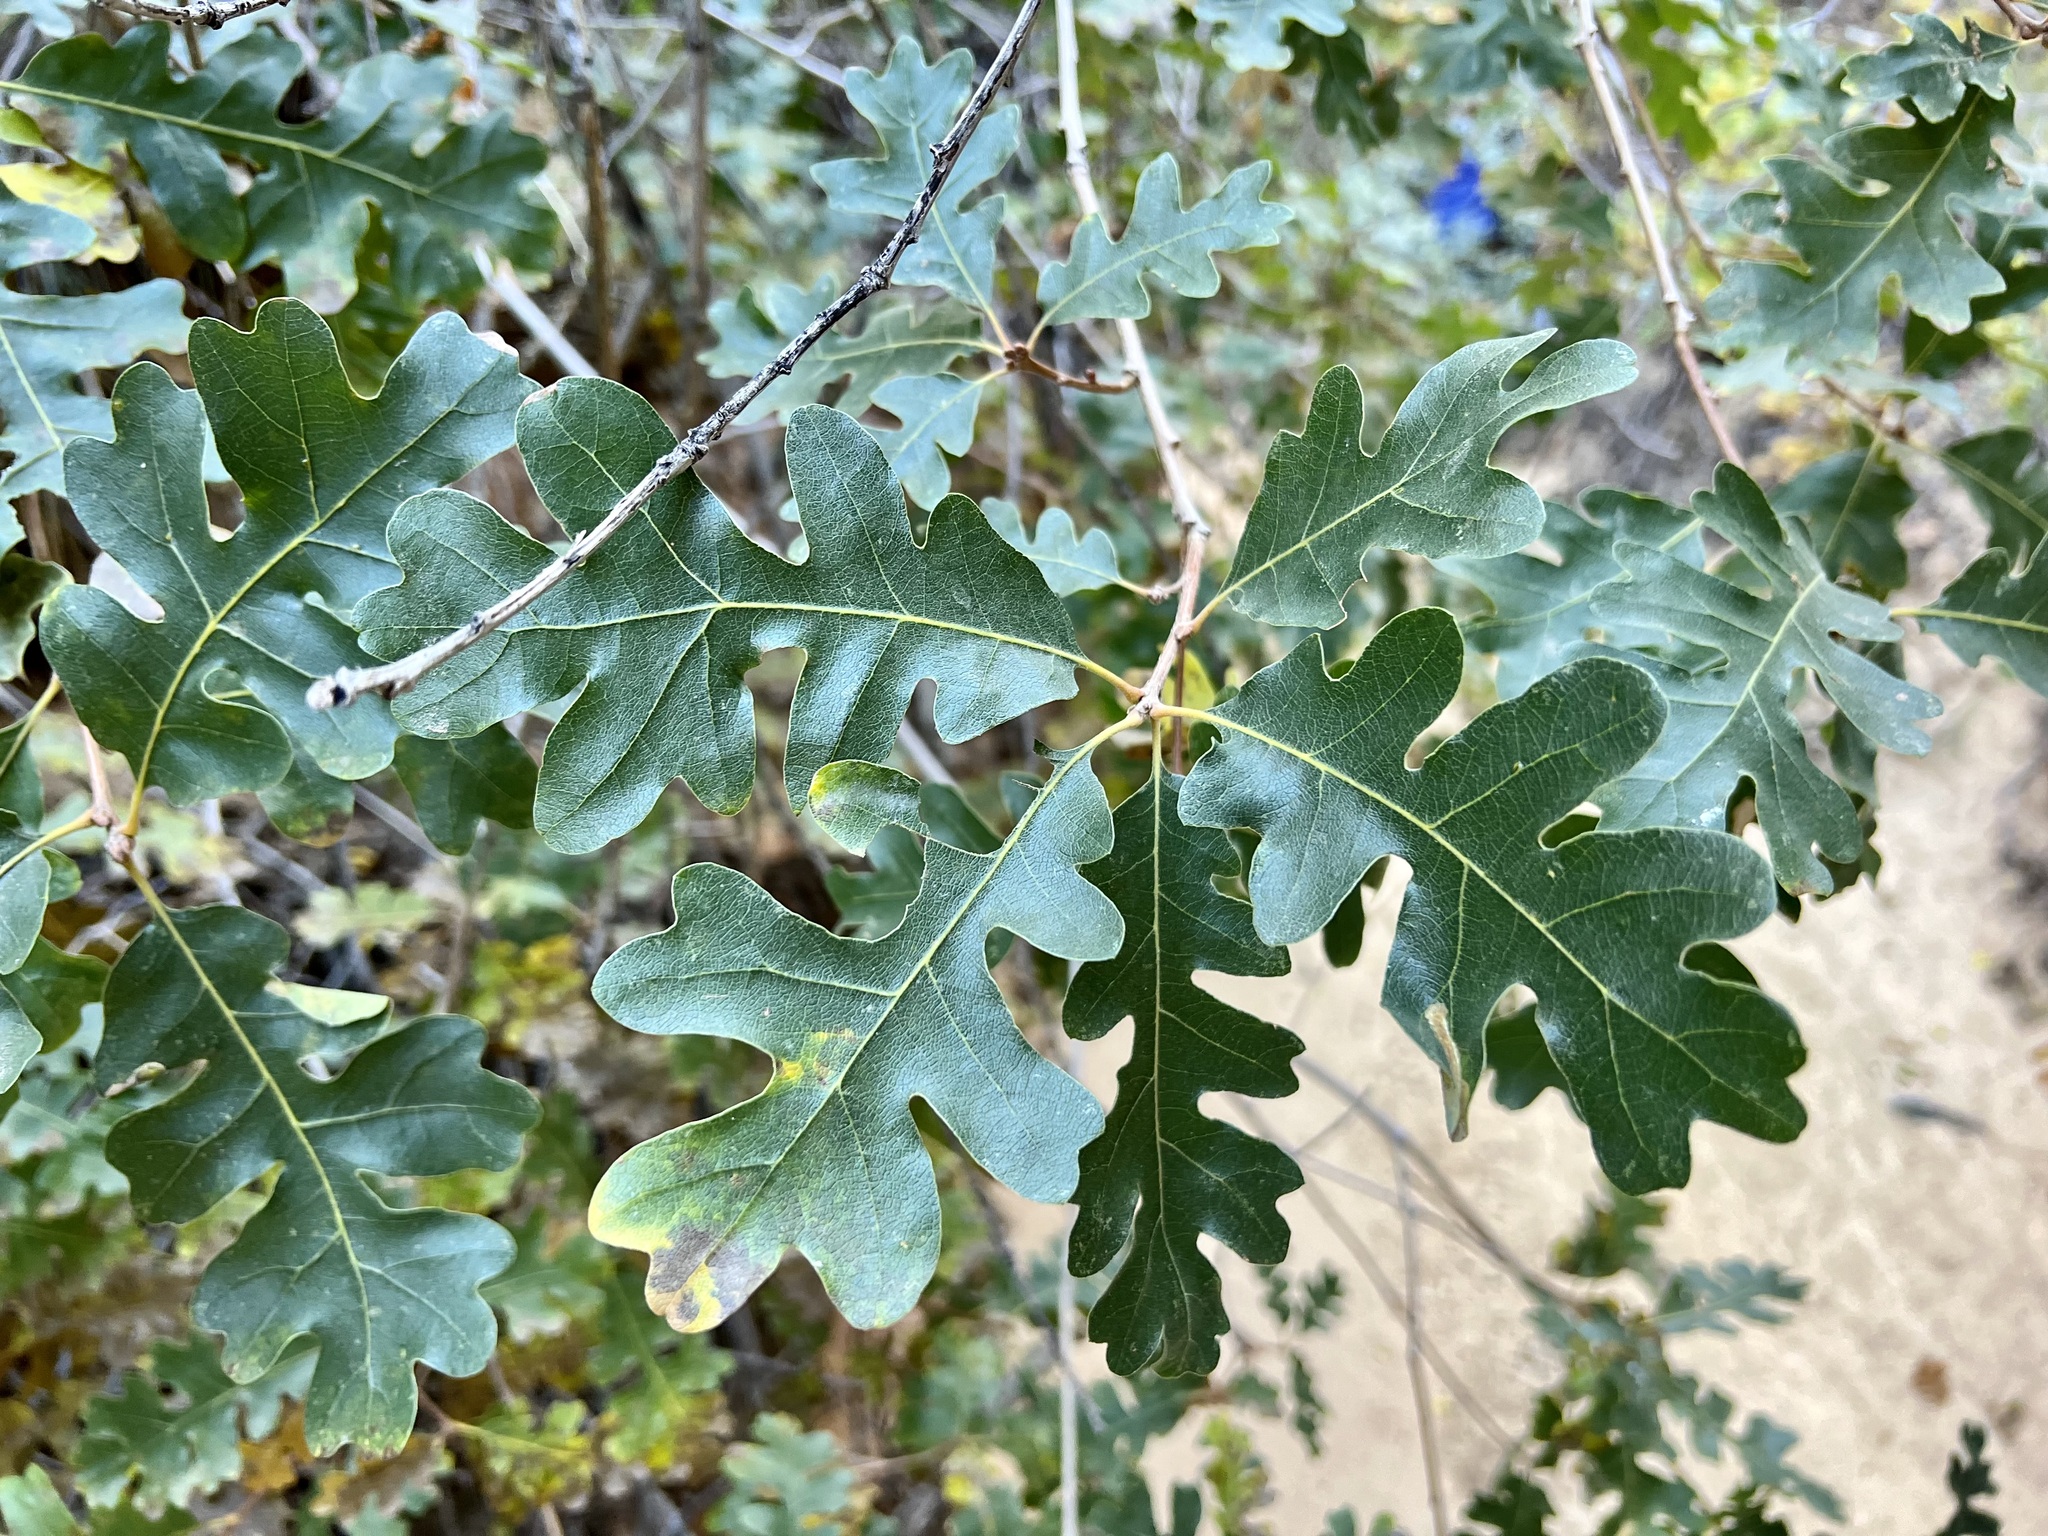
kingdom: Plantae
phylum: Tracheophyta
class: Magnoliopsida
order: Fagales
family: Fagaceae
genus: Quercus
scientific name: Quercus gambelii
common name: Gambel oak
